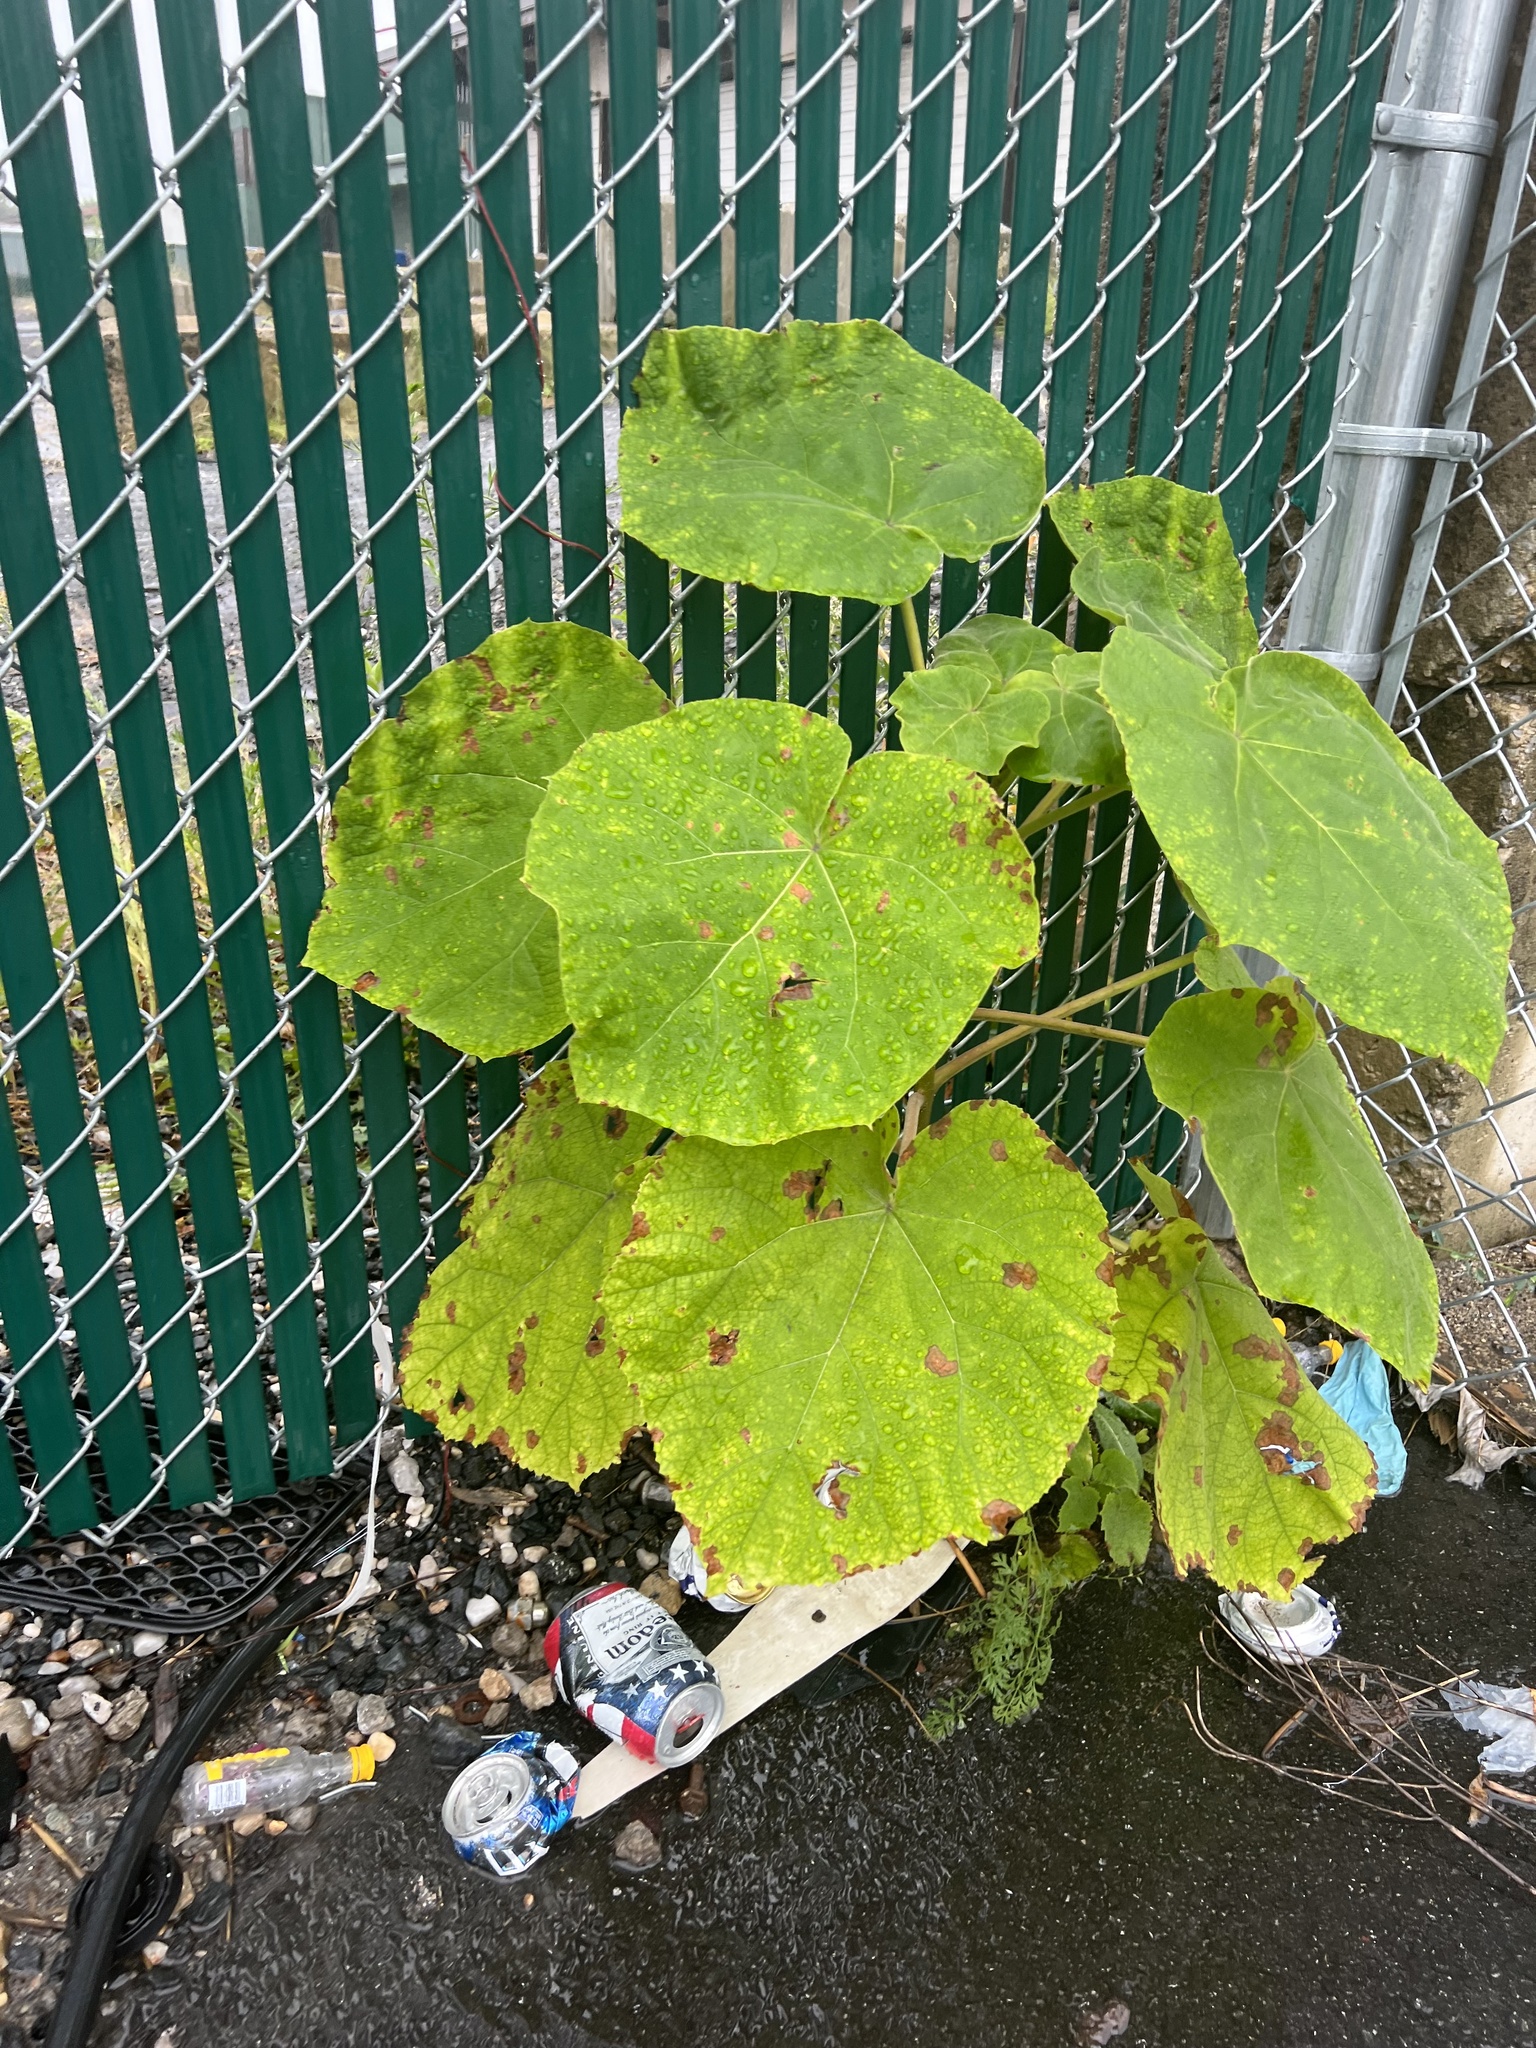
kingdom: Plantae
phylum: Tracheophyta
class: Magnoliopsida
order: Lamiales
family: Paulowniaceae
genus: Paulownia
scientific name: Paulownia tomentosa
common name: Foxglove-tree
